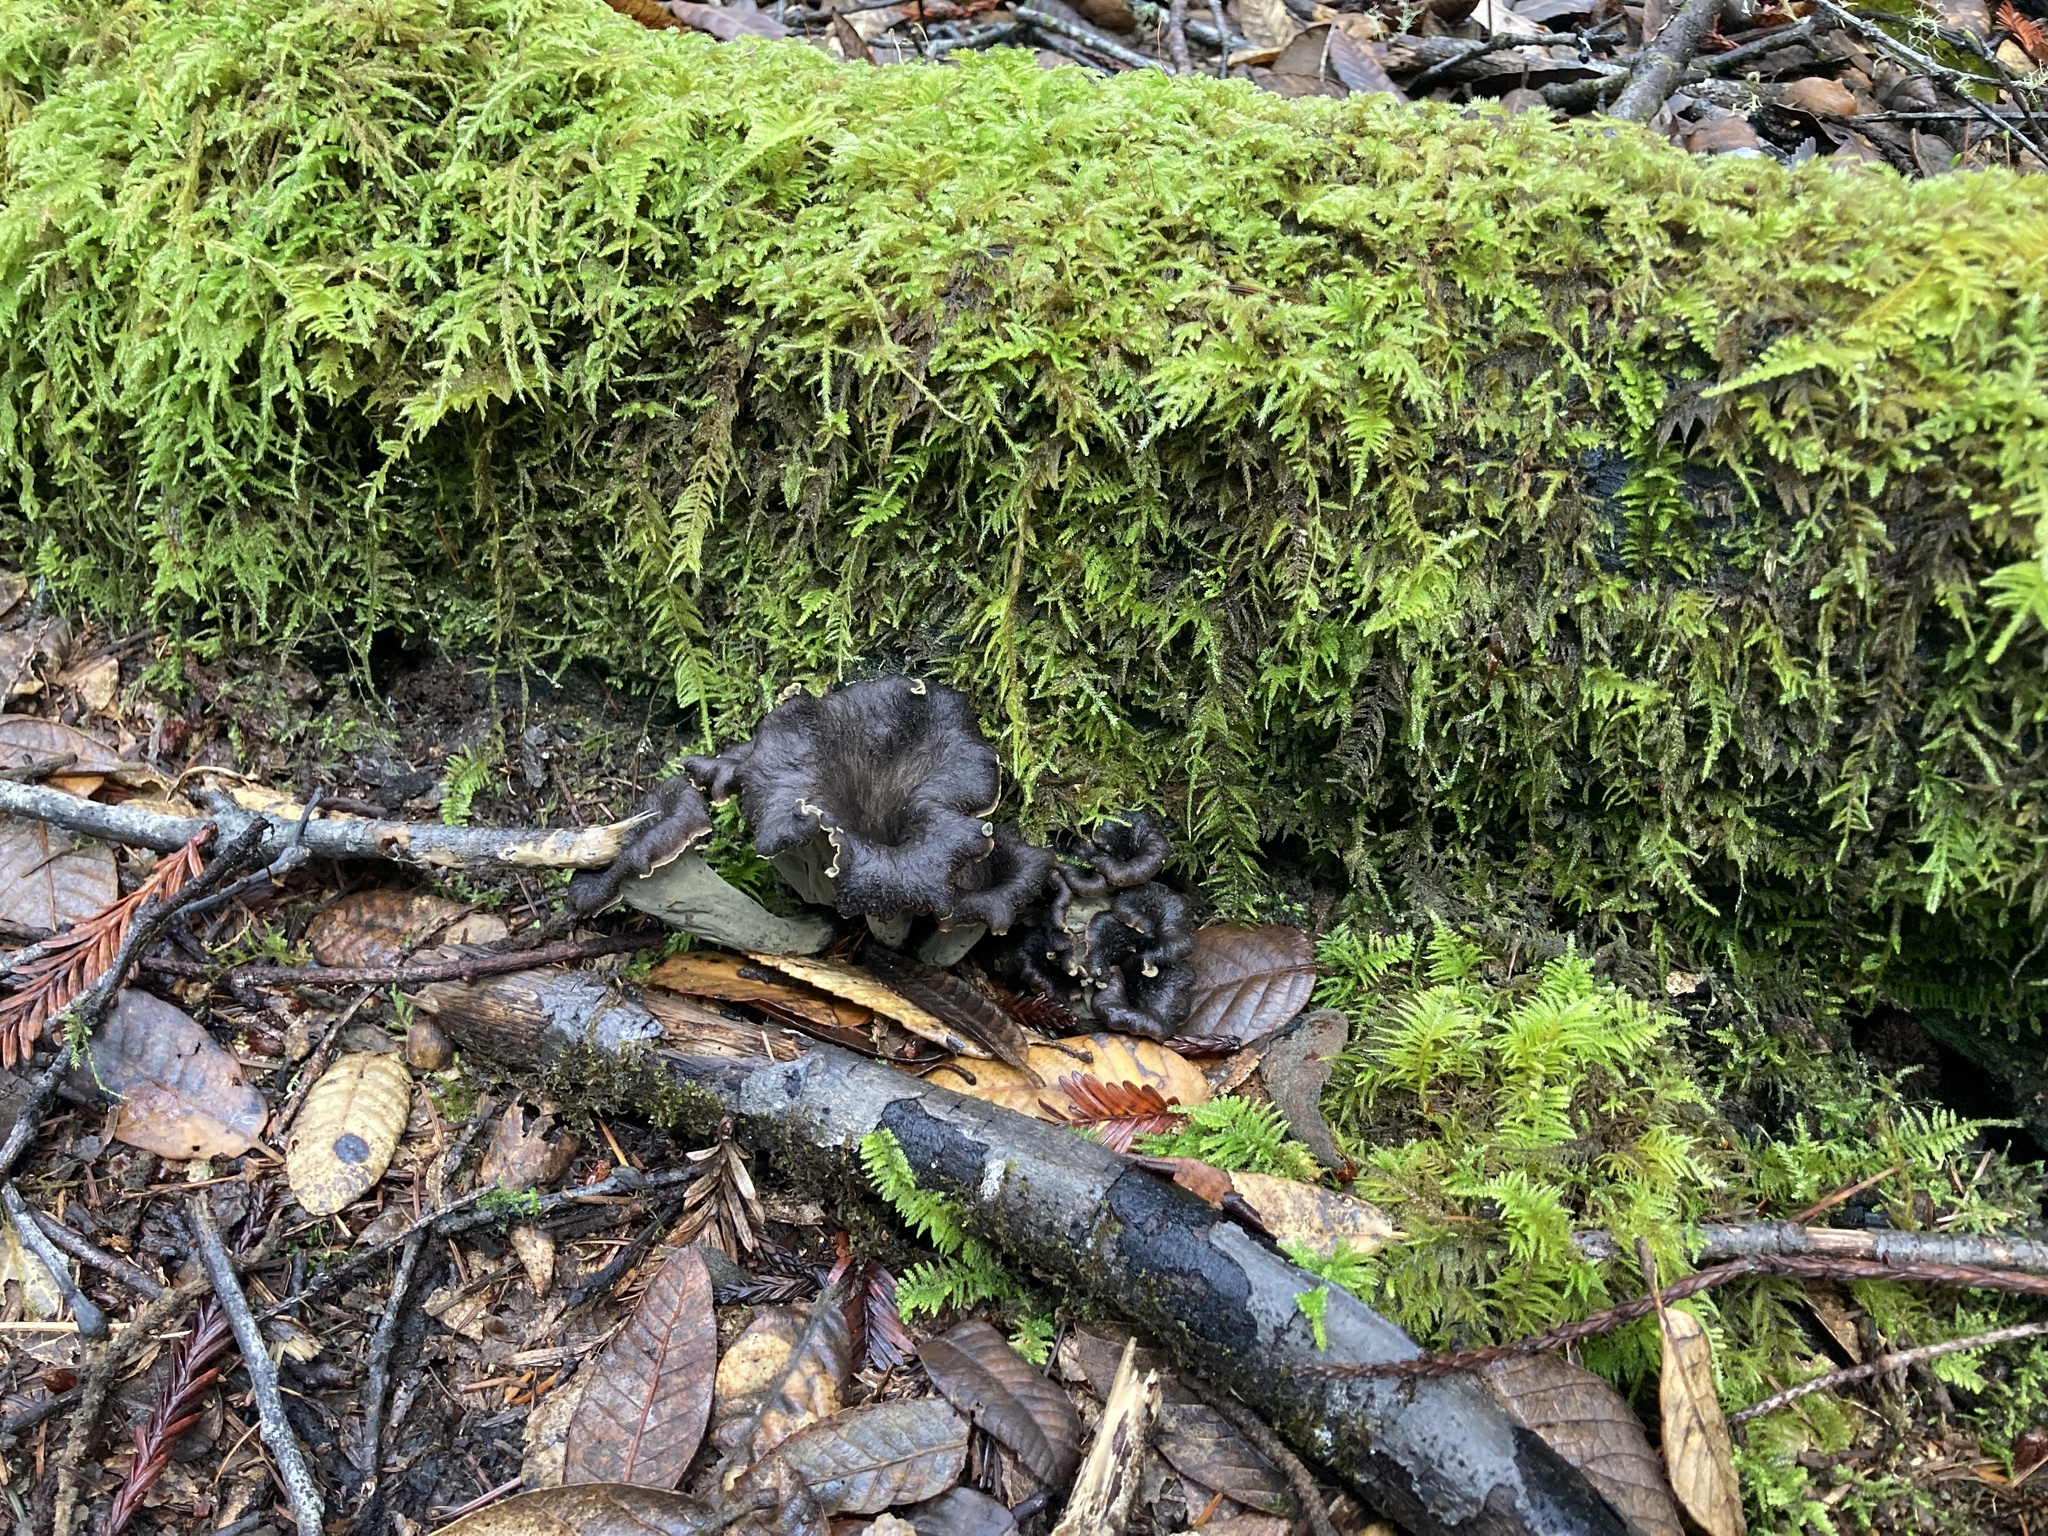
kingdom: Fungi
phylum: Basidiomycota
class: Agaricomycetes
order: Cantharellales
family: Hydnaceae
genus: Craterellus
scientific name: Craterellus calicornucopioides
